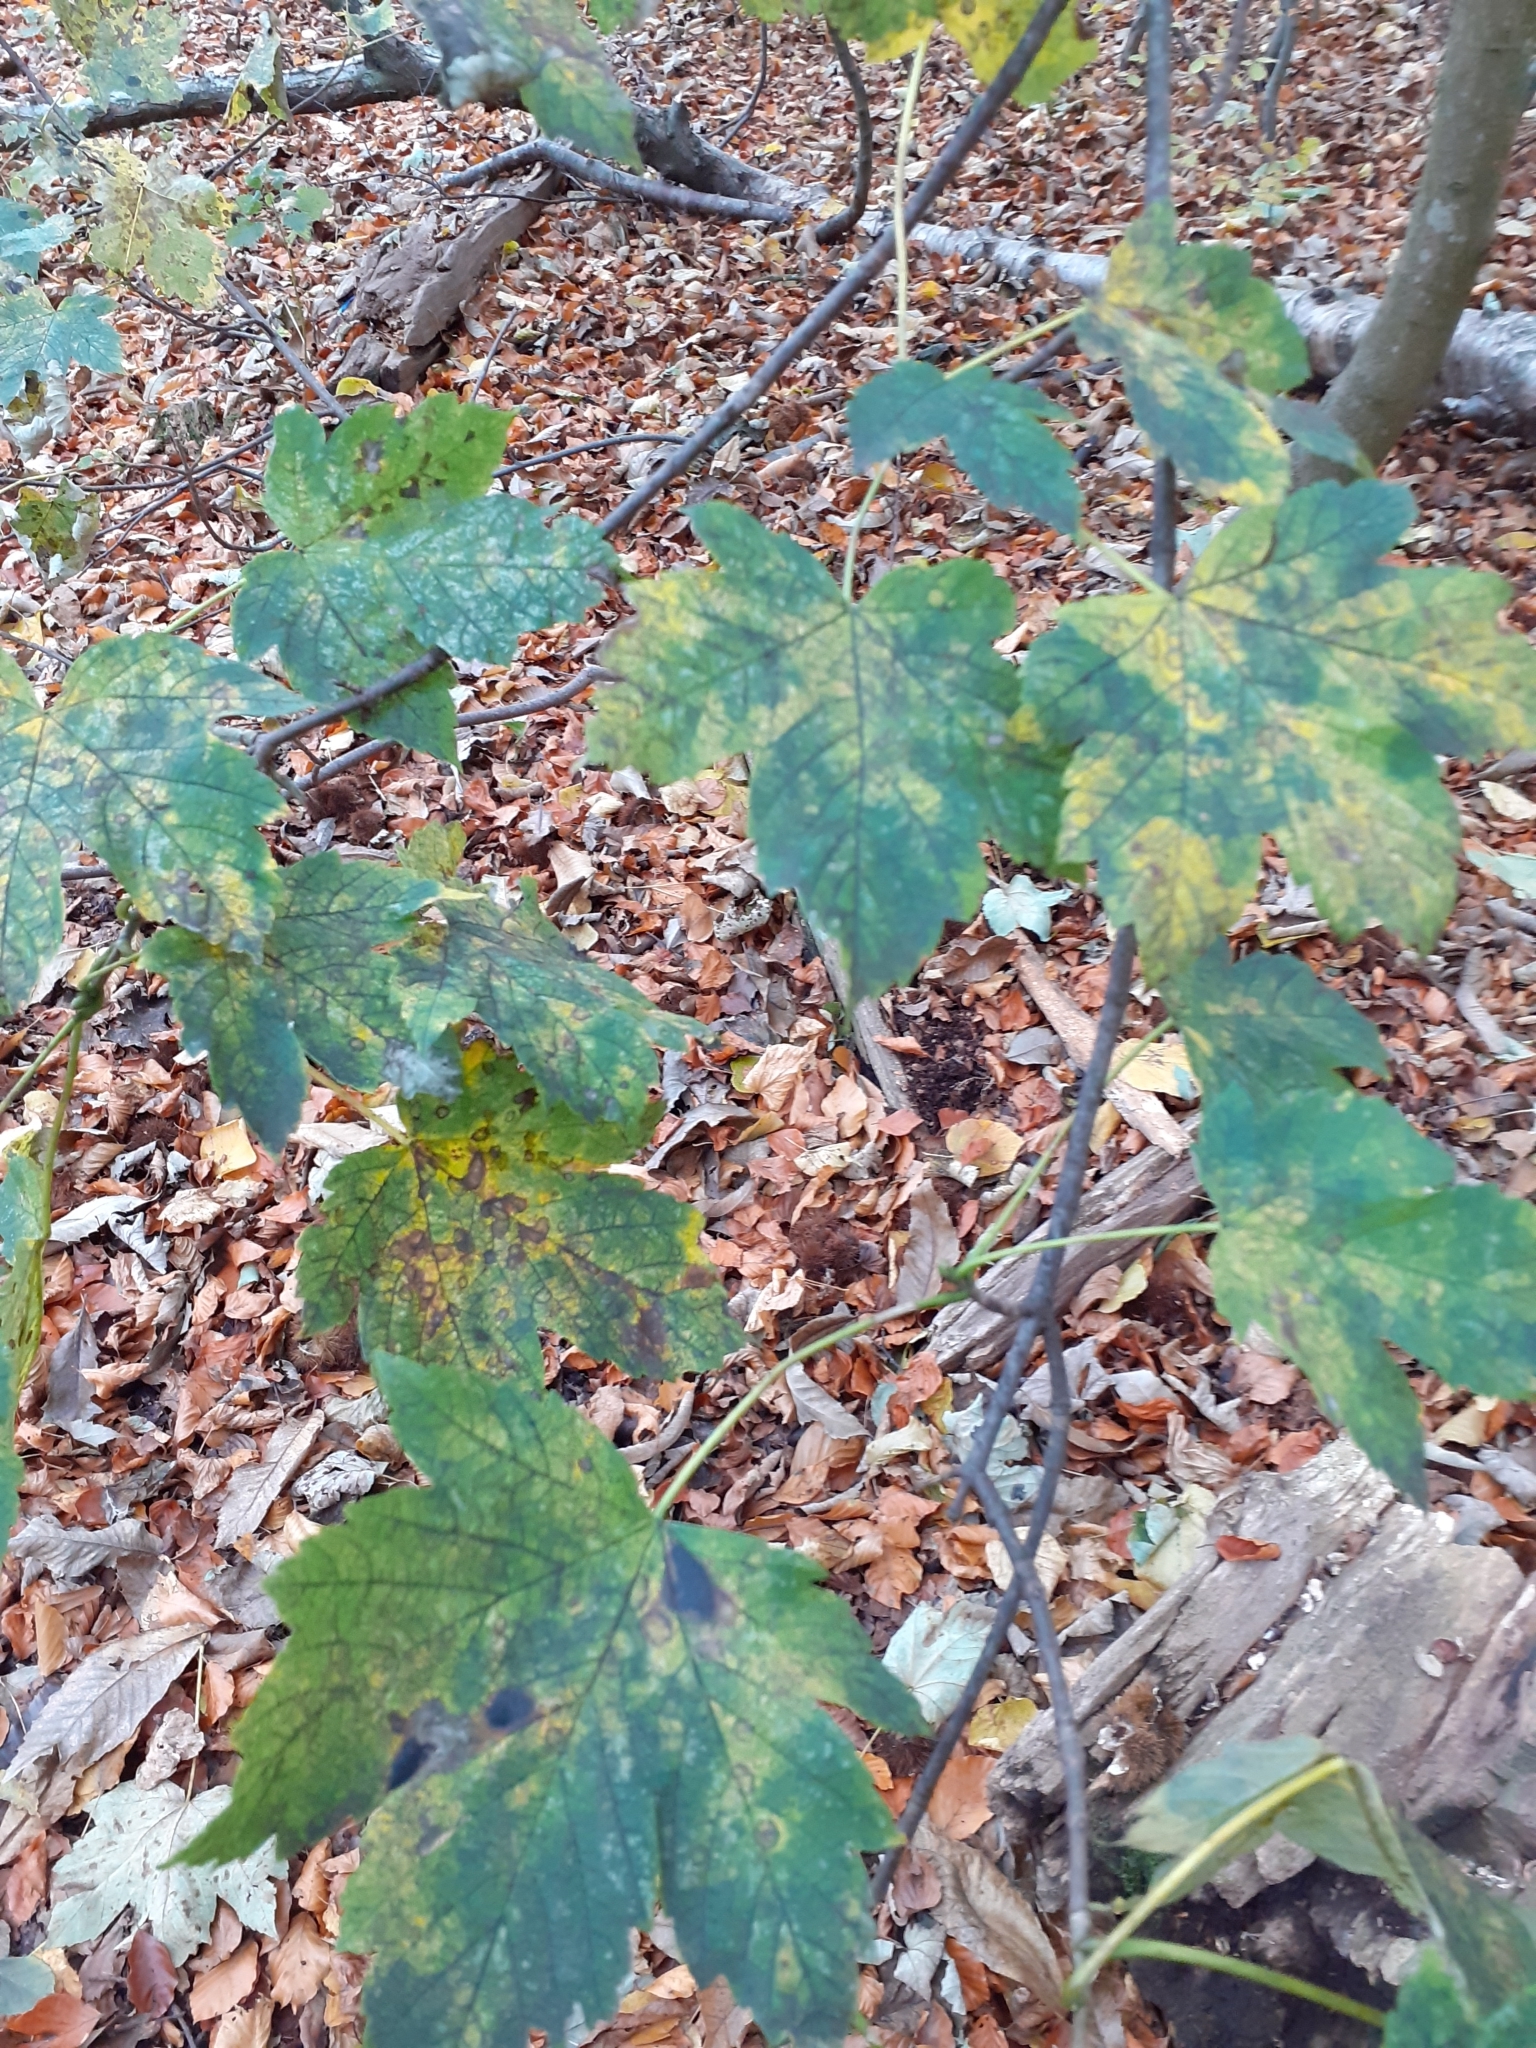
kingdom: Plantae
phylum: Tracheophyta
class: Magnoliopsida
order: Sapindales
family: Sapindaceae
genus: Acer
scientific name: Acer pseudoplatanus
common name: Sycamore
